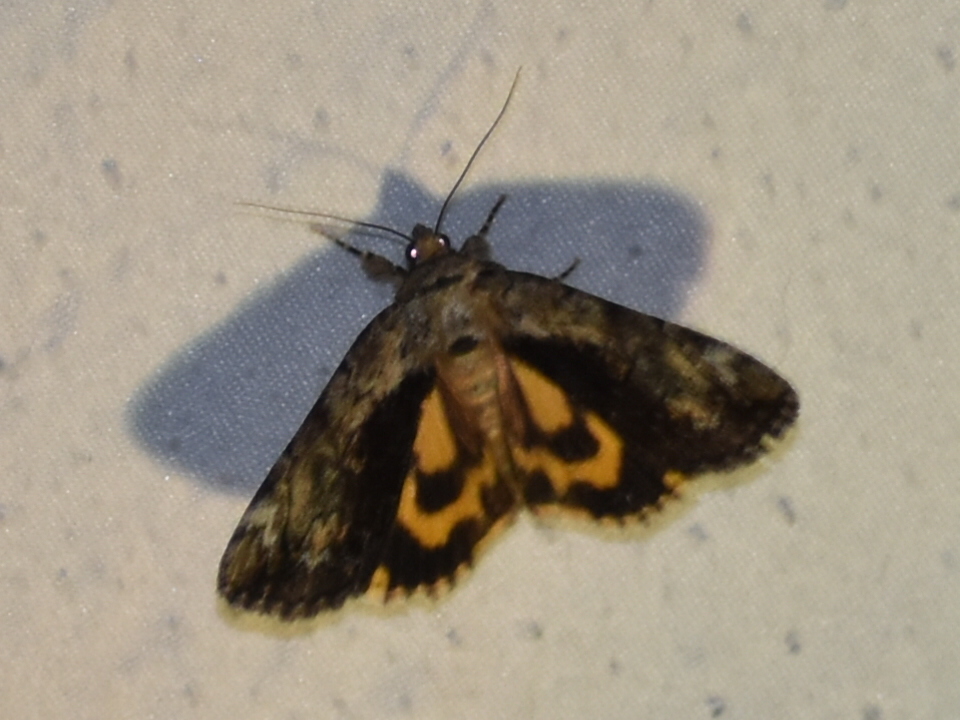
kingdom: Animalia
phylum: Arthropoda
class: Insecta
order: Lepidoptera
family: Erebidae
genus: Catocala
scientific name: Catocala minuta
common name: Little underwing
